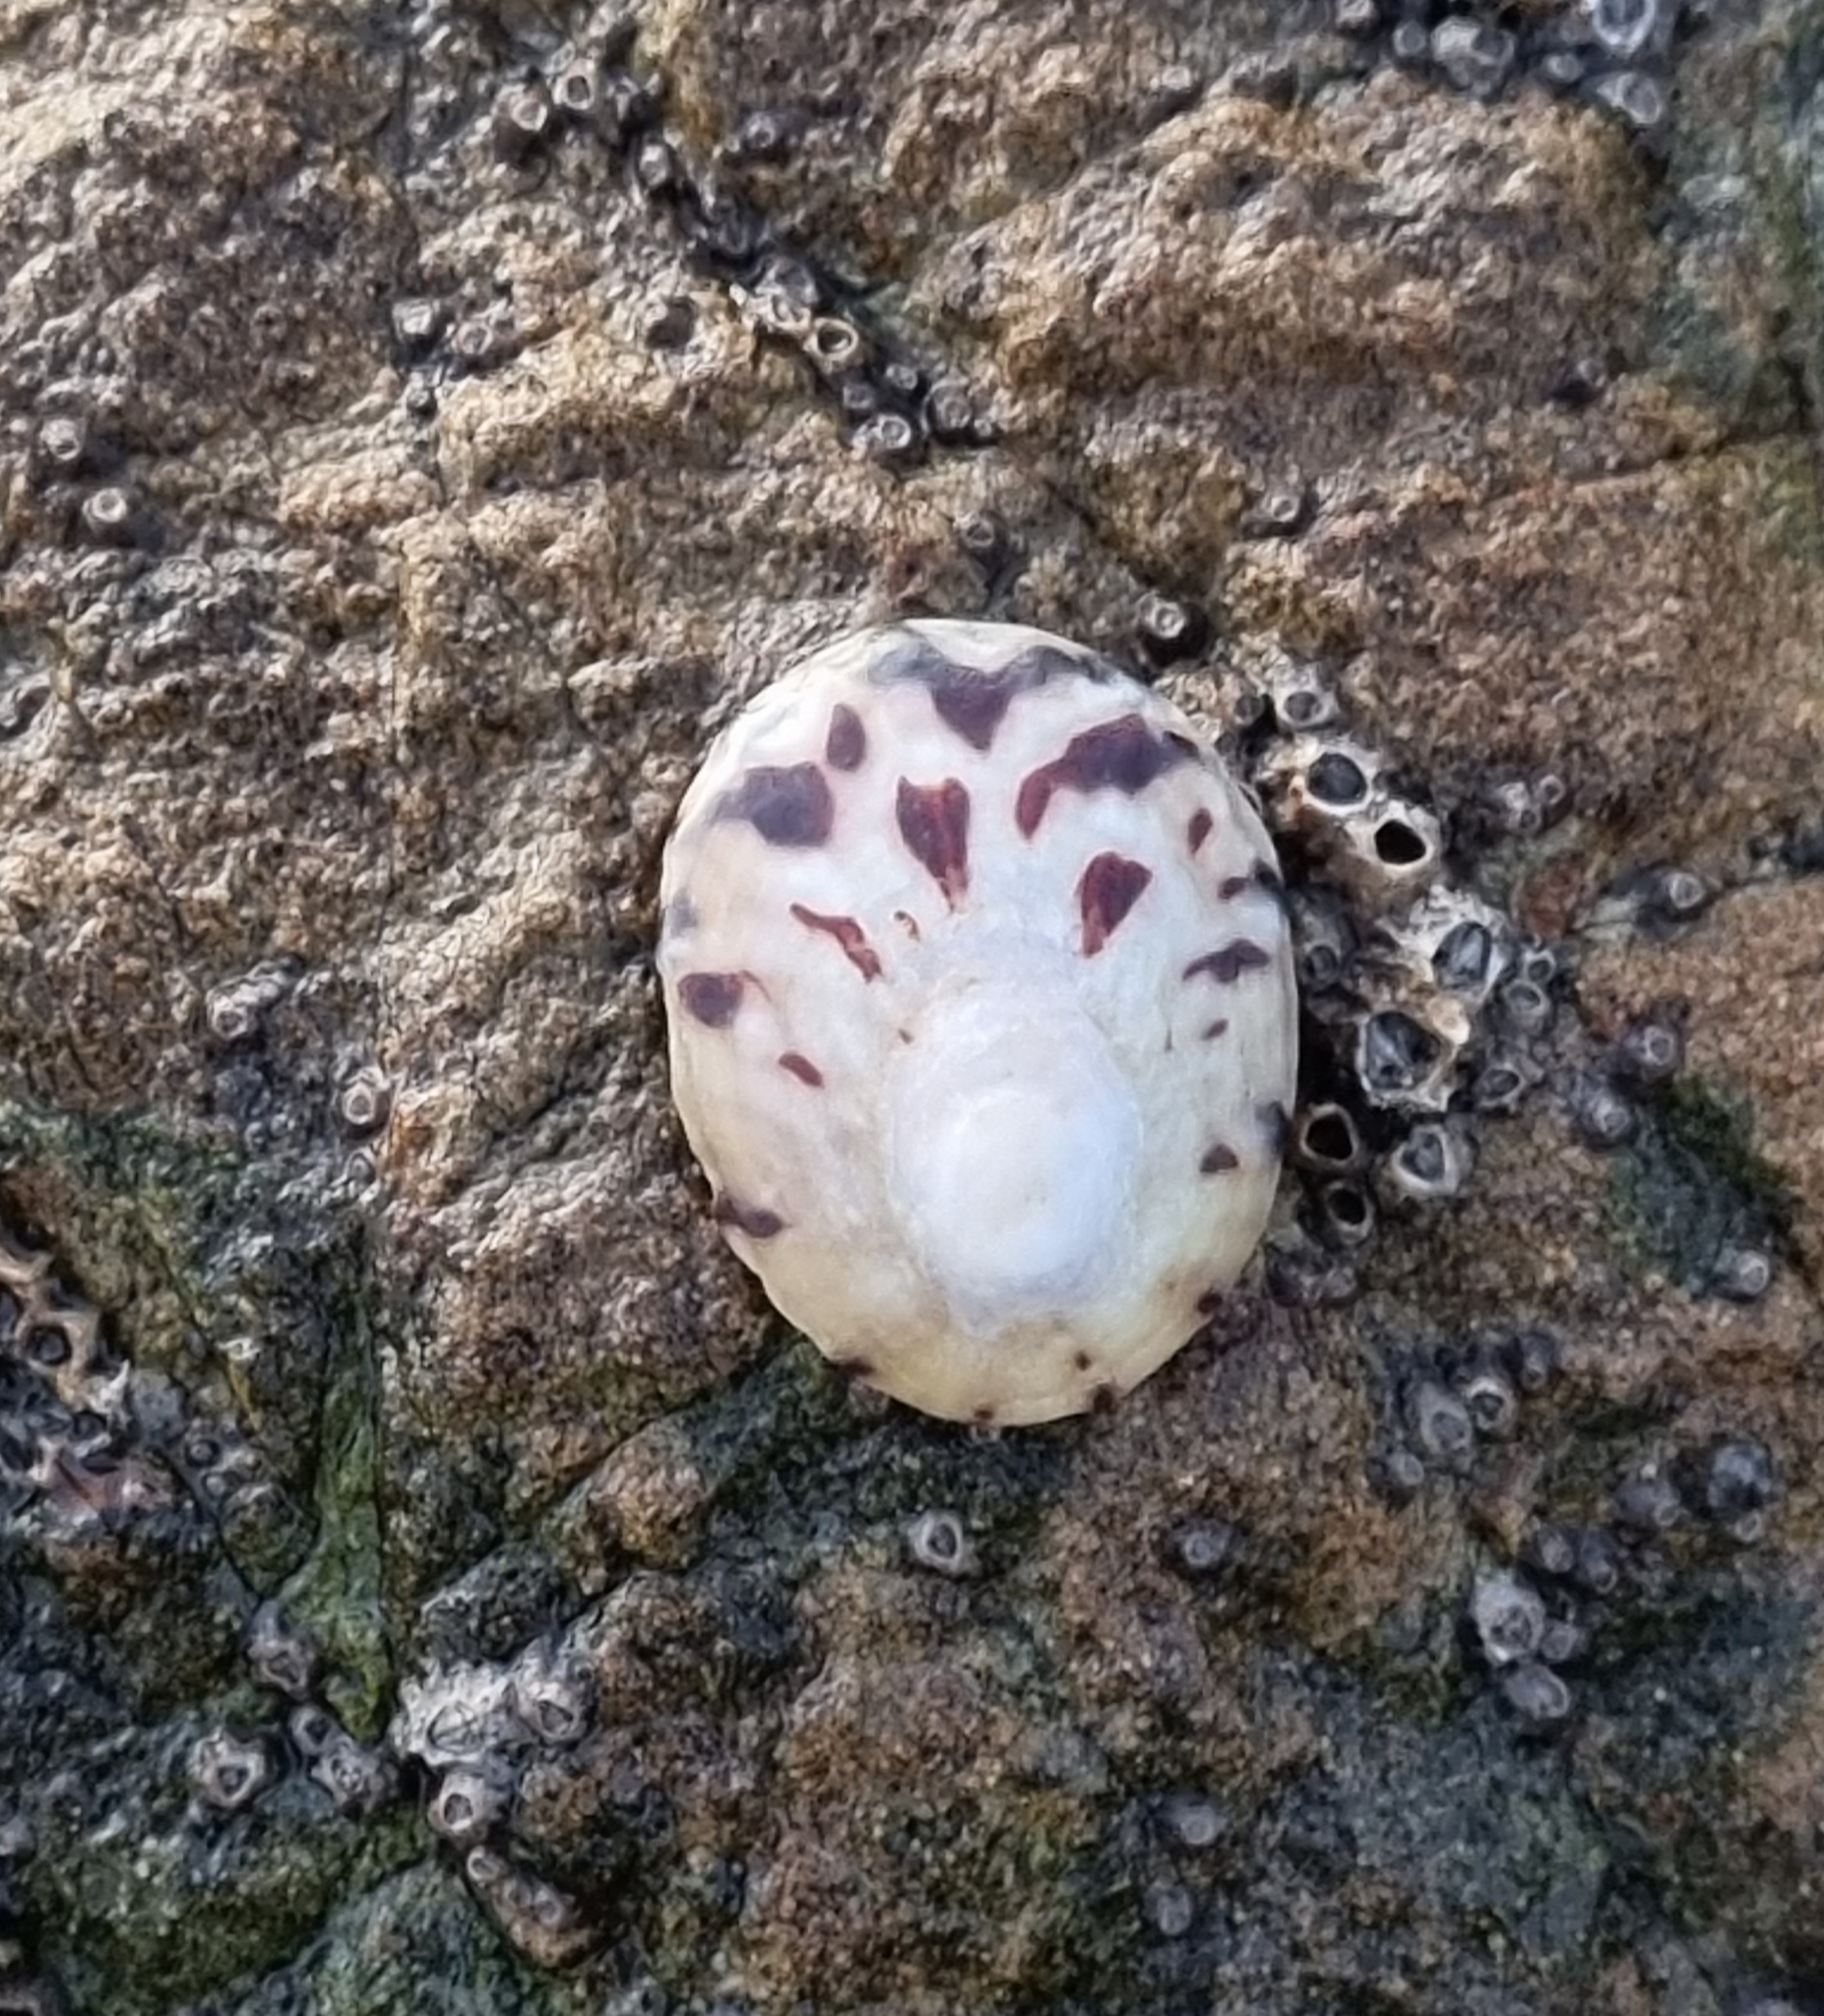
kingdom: Animalia
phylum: Mollusca
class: Gastropoda
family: Nacellidae
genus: Cellana
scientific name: Cellana radians
